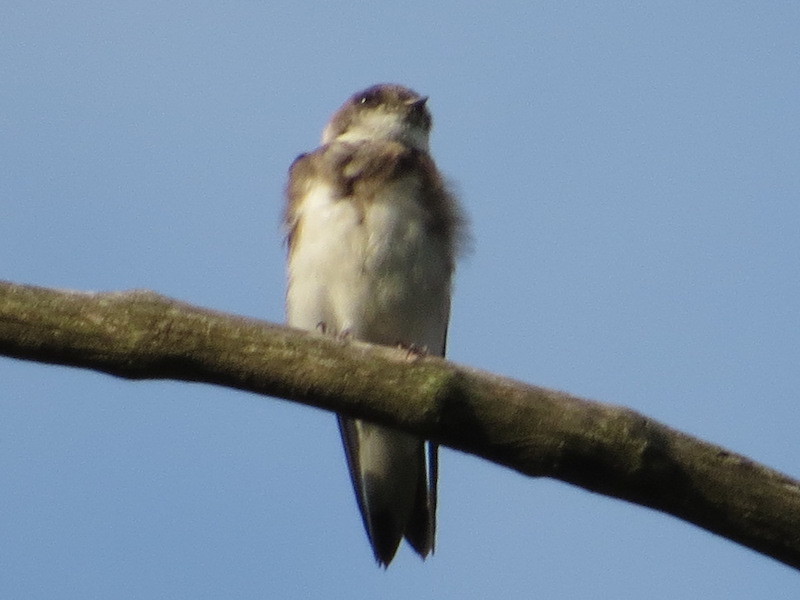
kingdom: Animalia
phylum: Chordata
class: Aves
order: Passeriformes
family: Hirundinidae
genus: Riparia
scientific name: Riparia riparia
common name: Sand martin
